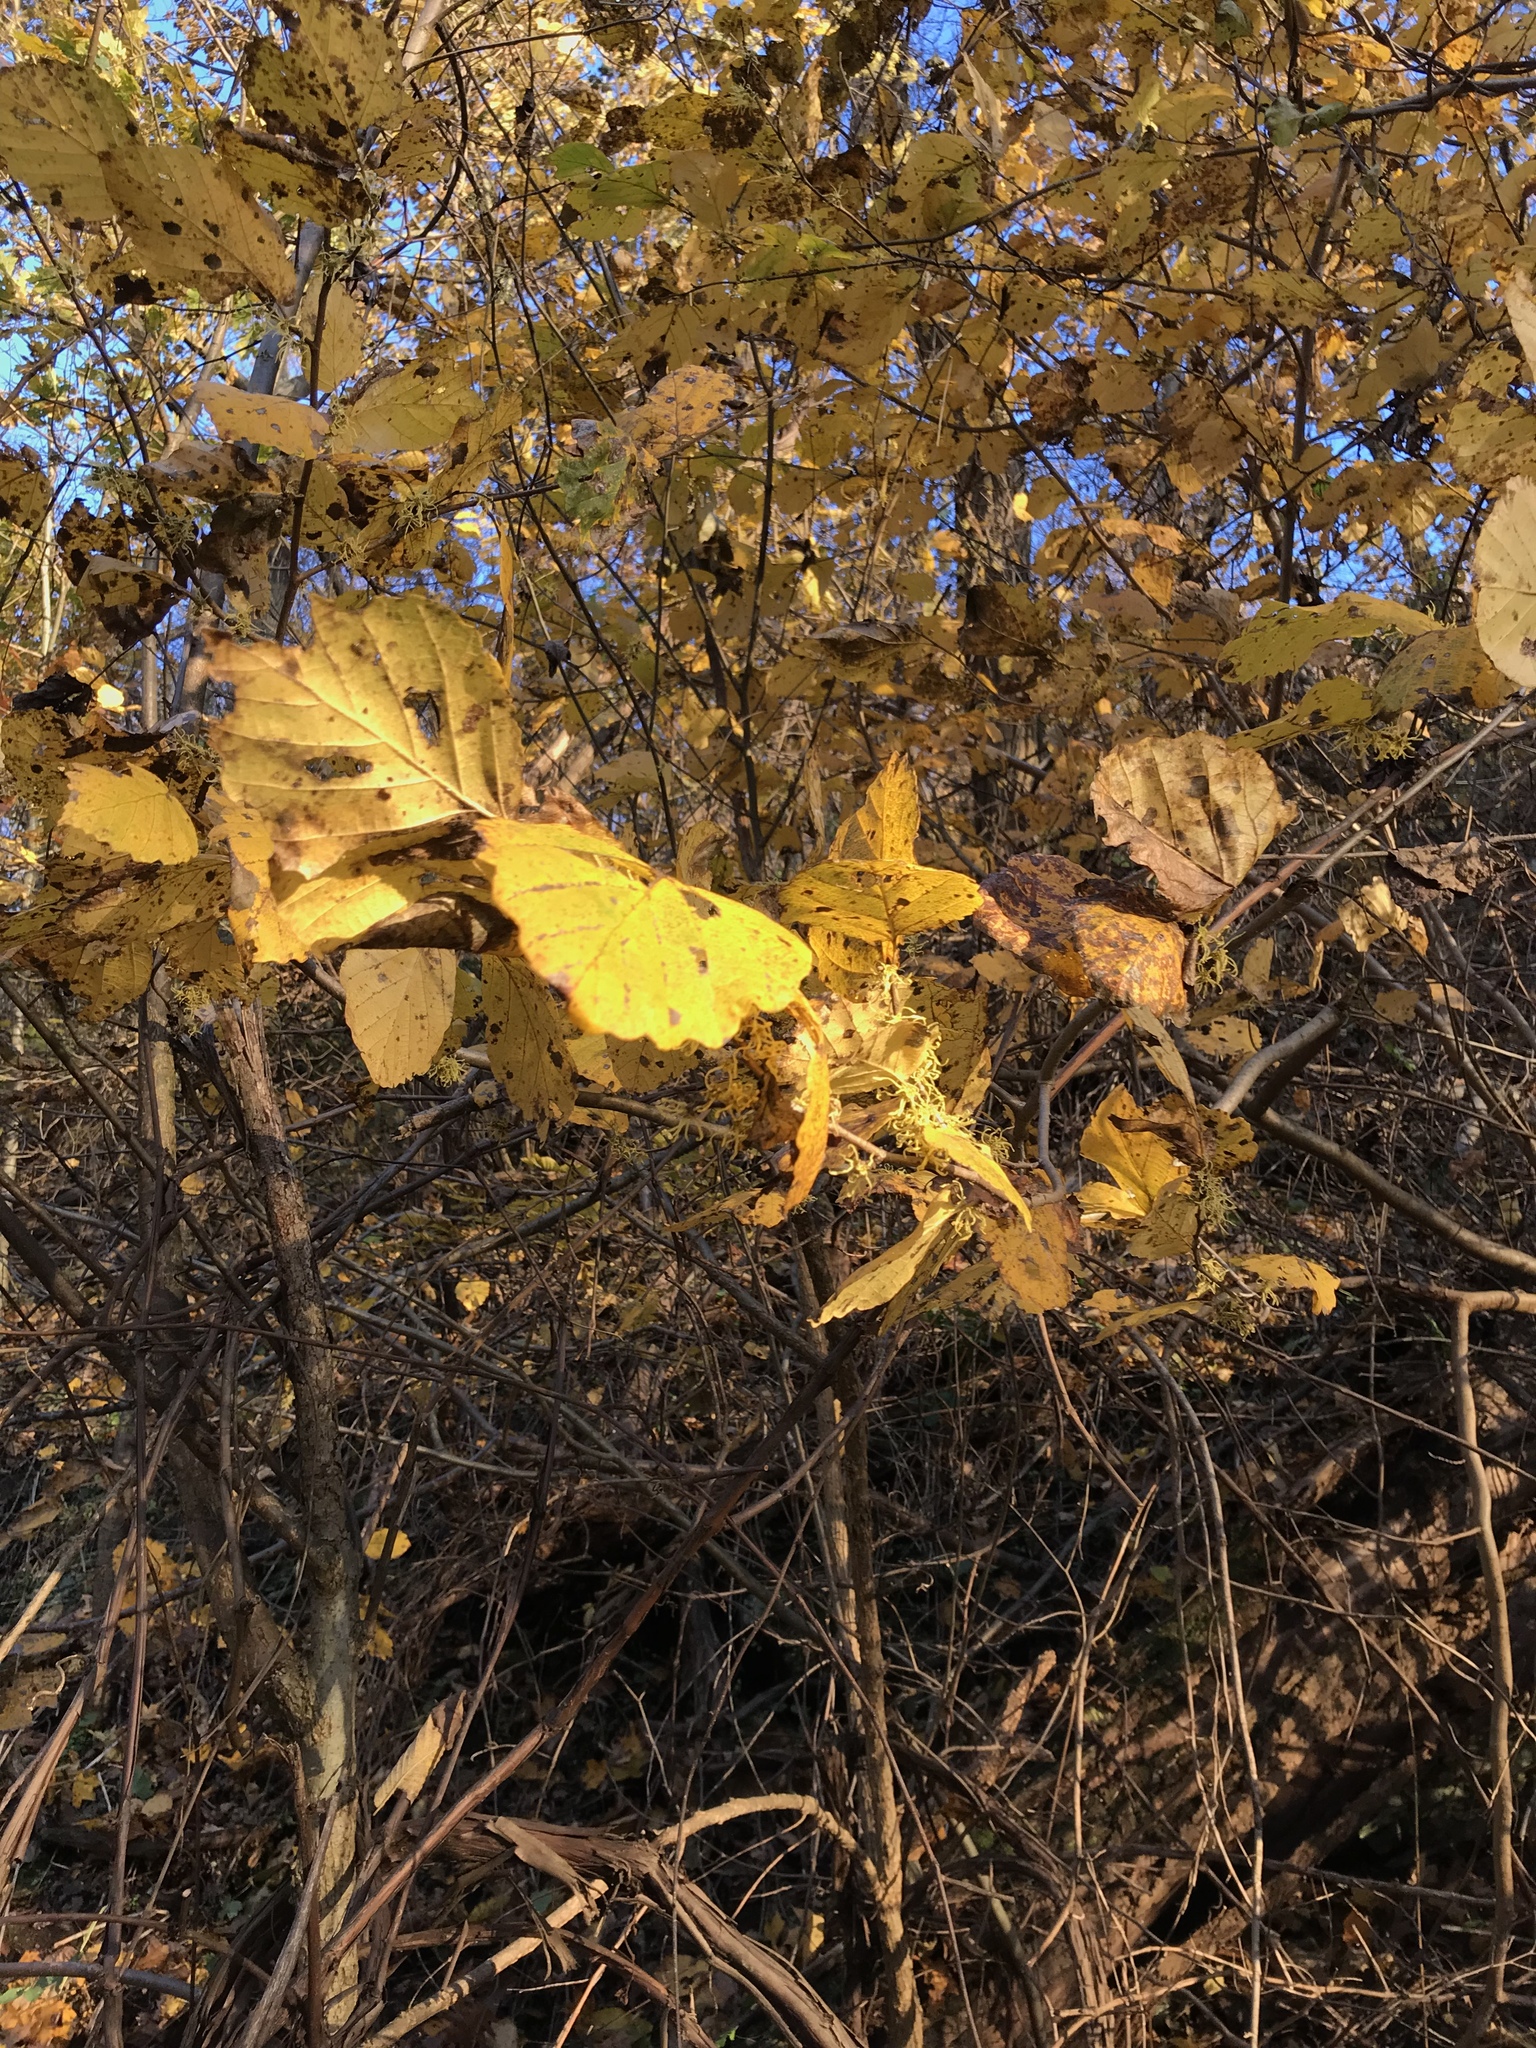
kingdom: Plantae
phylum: Tracheophyta
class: Magnoliopsida
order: Saxifragales
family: Hamamelidaceae
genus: Hamamelis
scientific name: Hamamelis virginiana
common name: Witch-hazel
